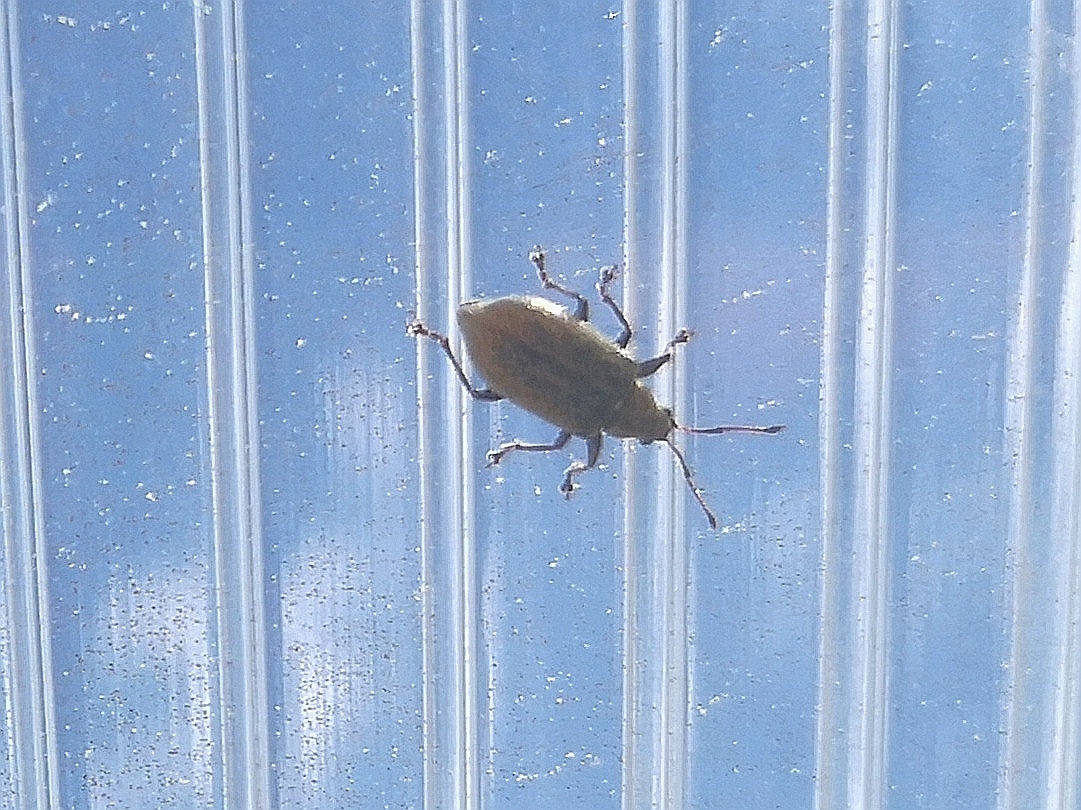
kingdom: Animalia
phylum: Arthropoda
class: Insecta
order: Coleoptera
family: Curculionidae
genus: Phyllobius
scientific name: Phyllobius pyri
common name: Common leaf weevil
